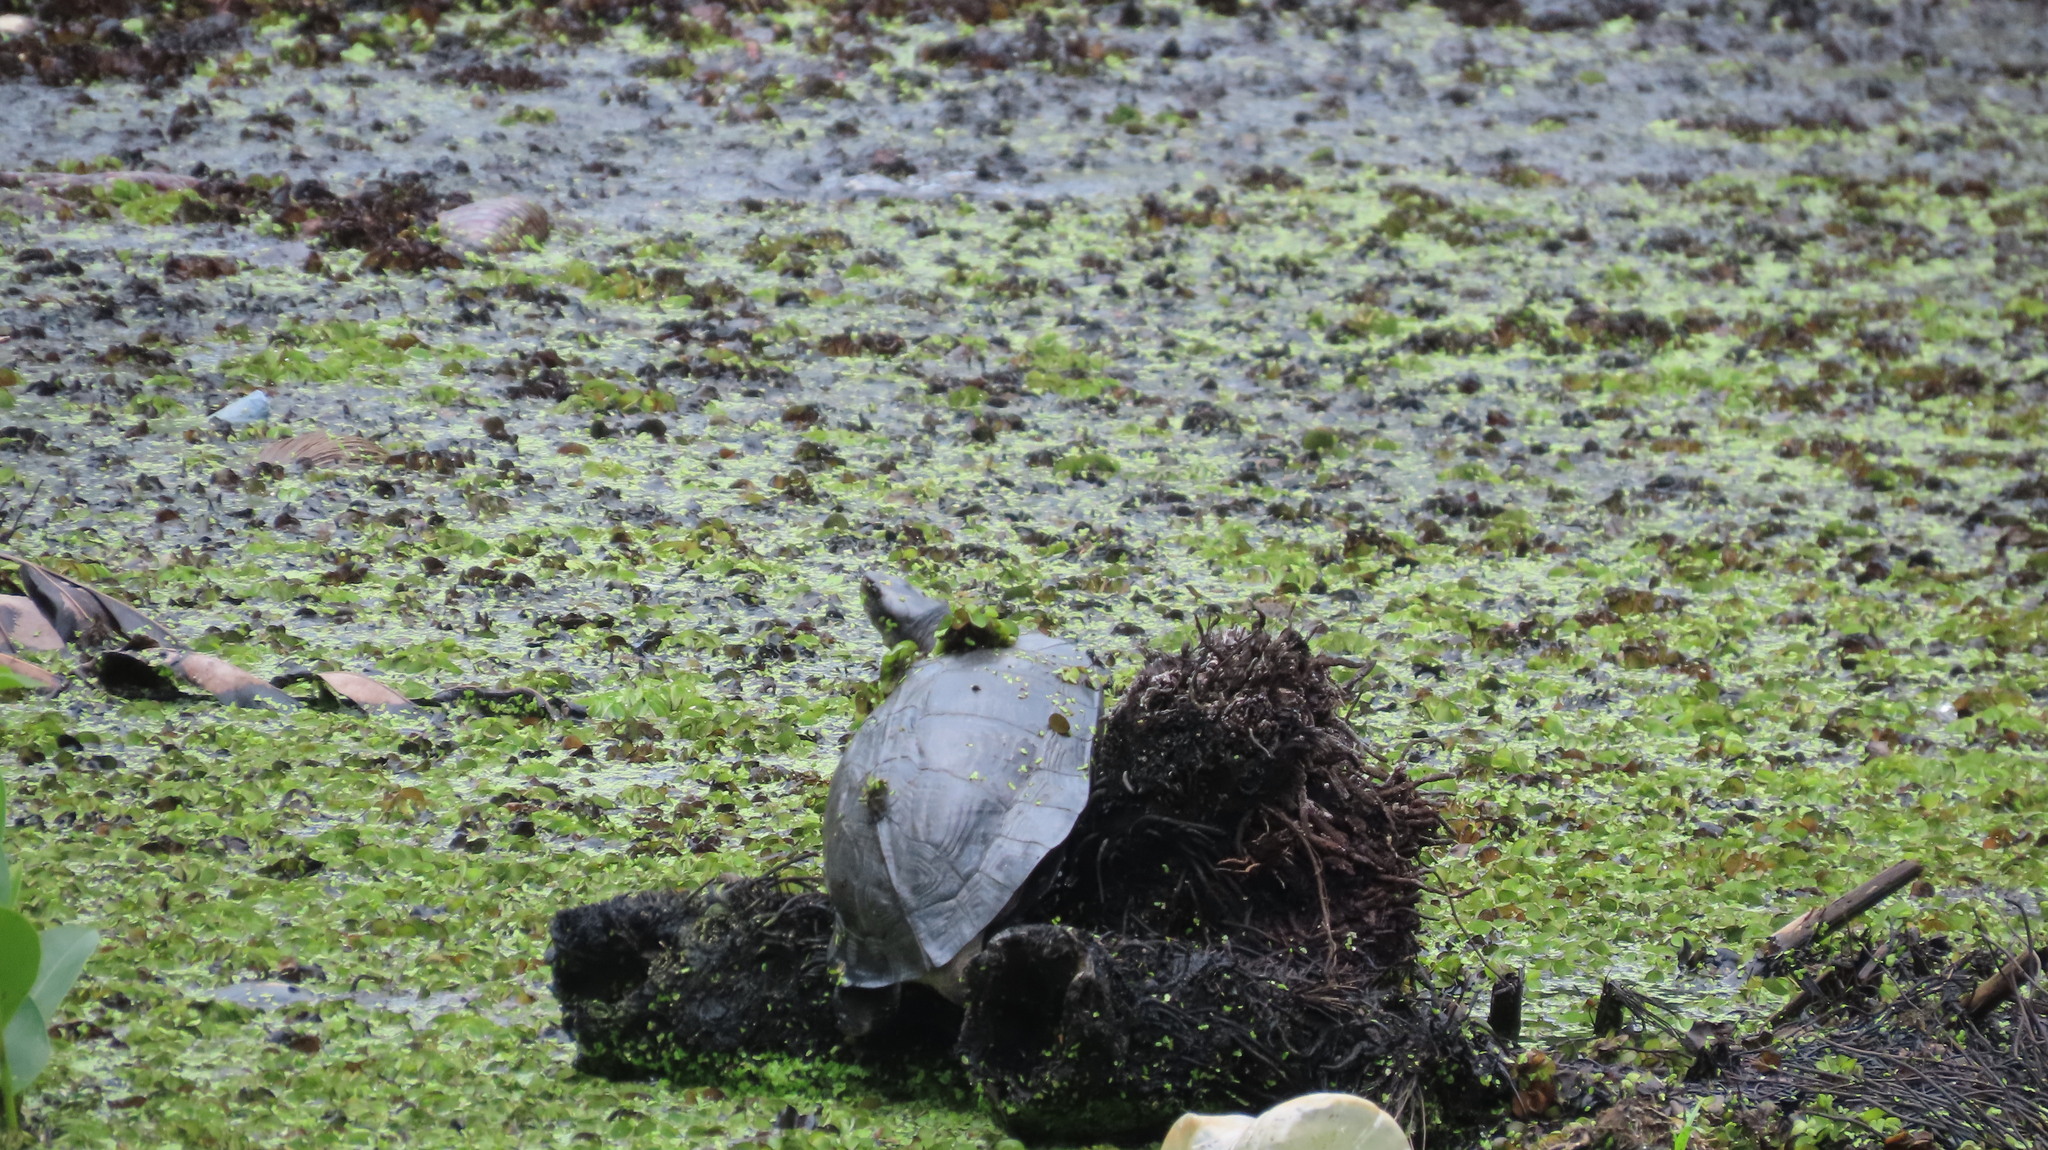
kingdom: Animalia
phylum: Chordata
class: Testudines
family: Geoemydidae
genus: Melanochelys
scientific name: Melanochelys trijuga
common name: Indian black turtle
